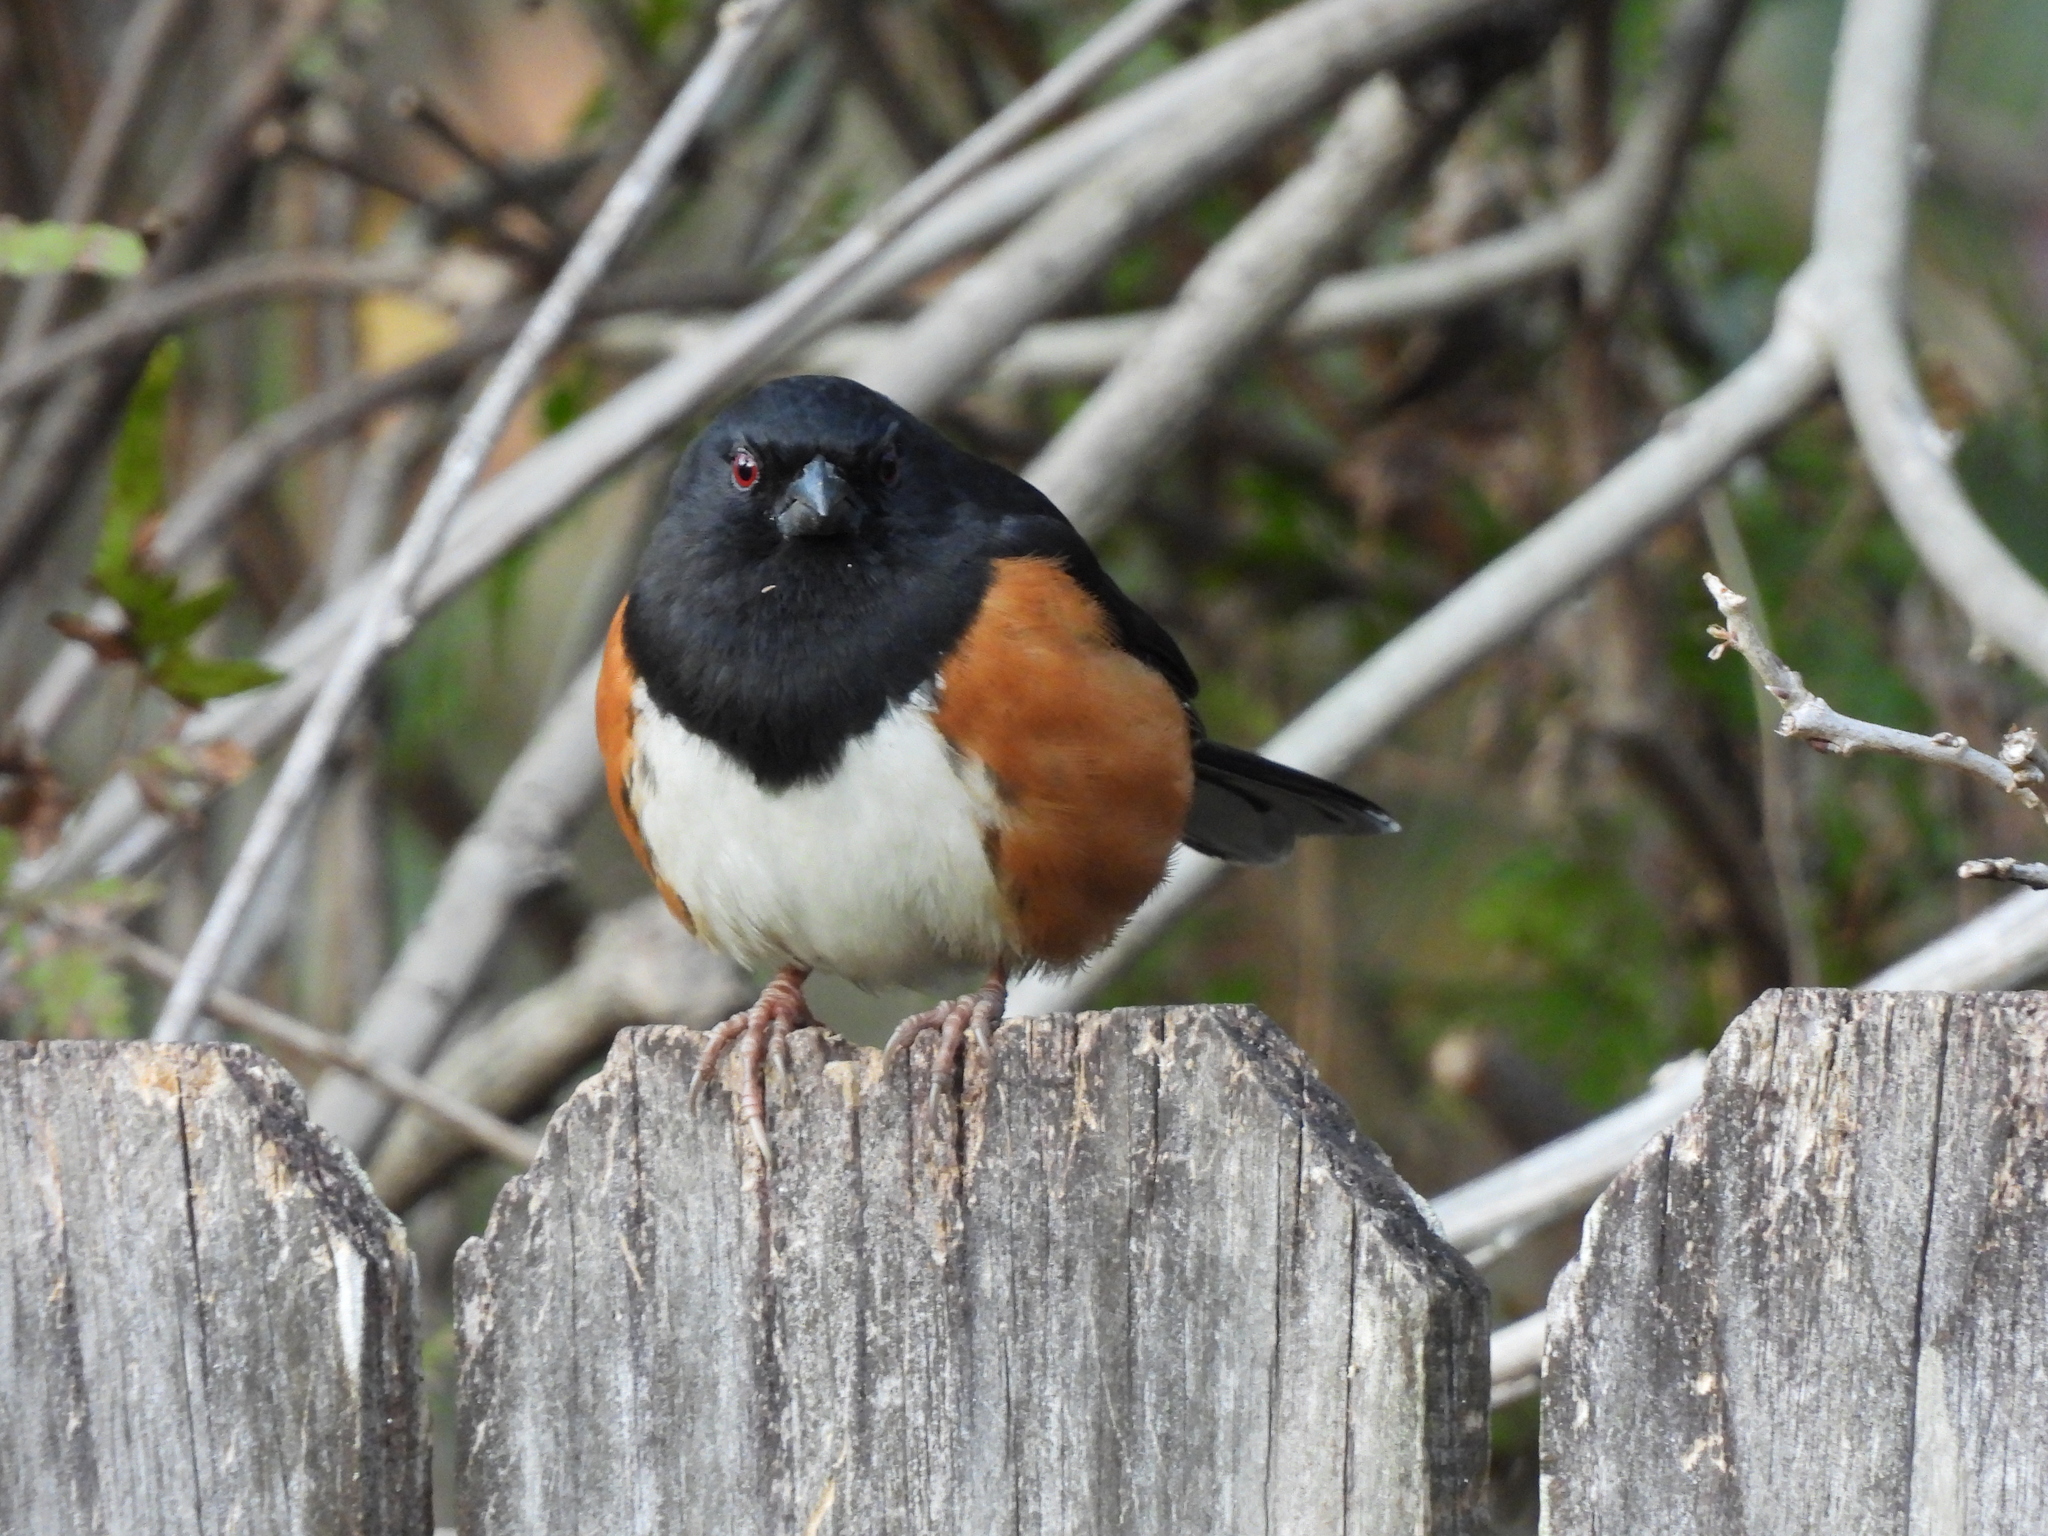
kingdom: Animalia
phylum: Chordata
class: Aves
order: Passeriformes
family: Passerellidae
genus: Pipilo
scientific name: Pipilo erythrophthalmus
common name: Eastern towhee
